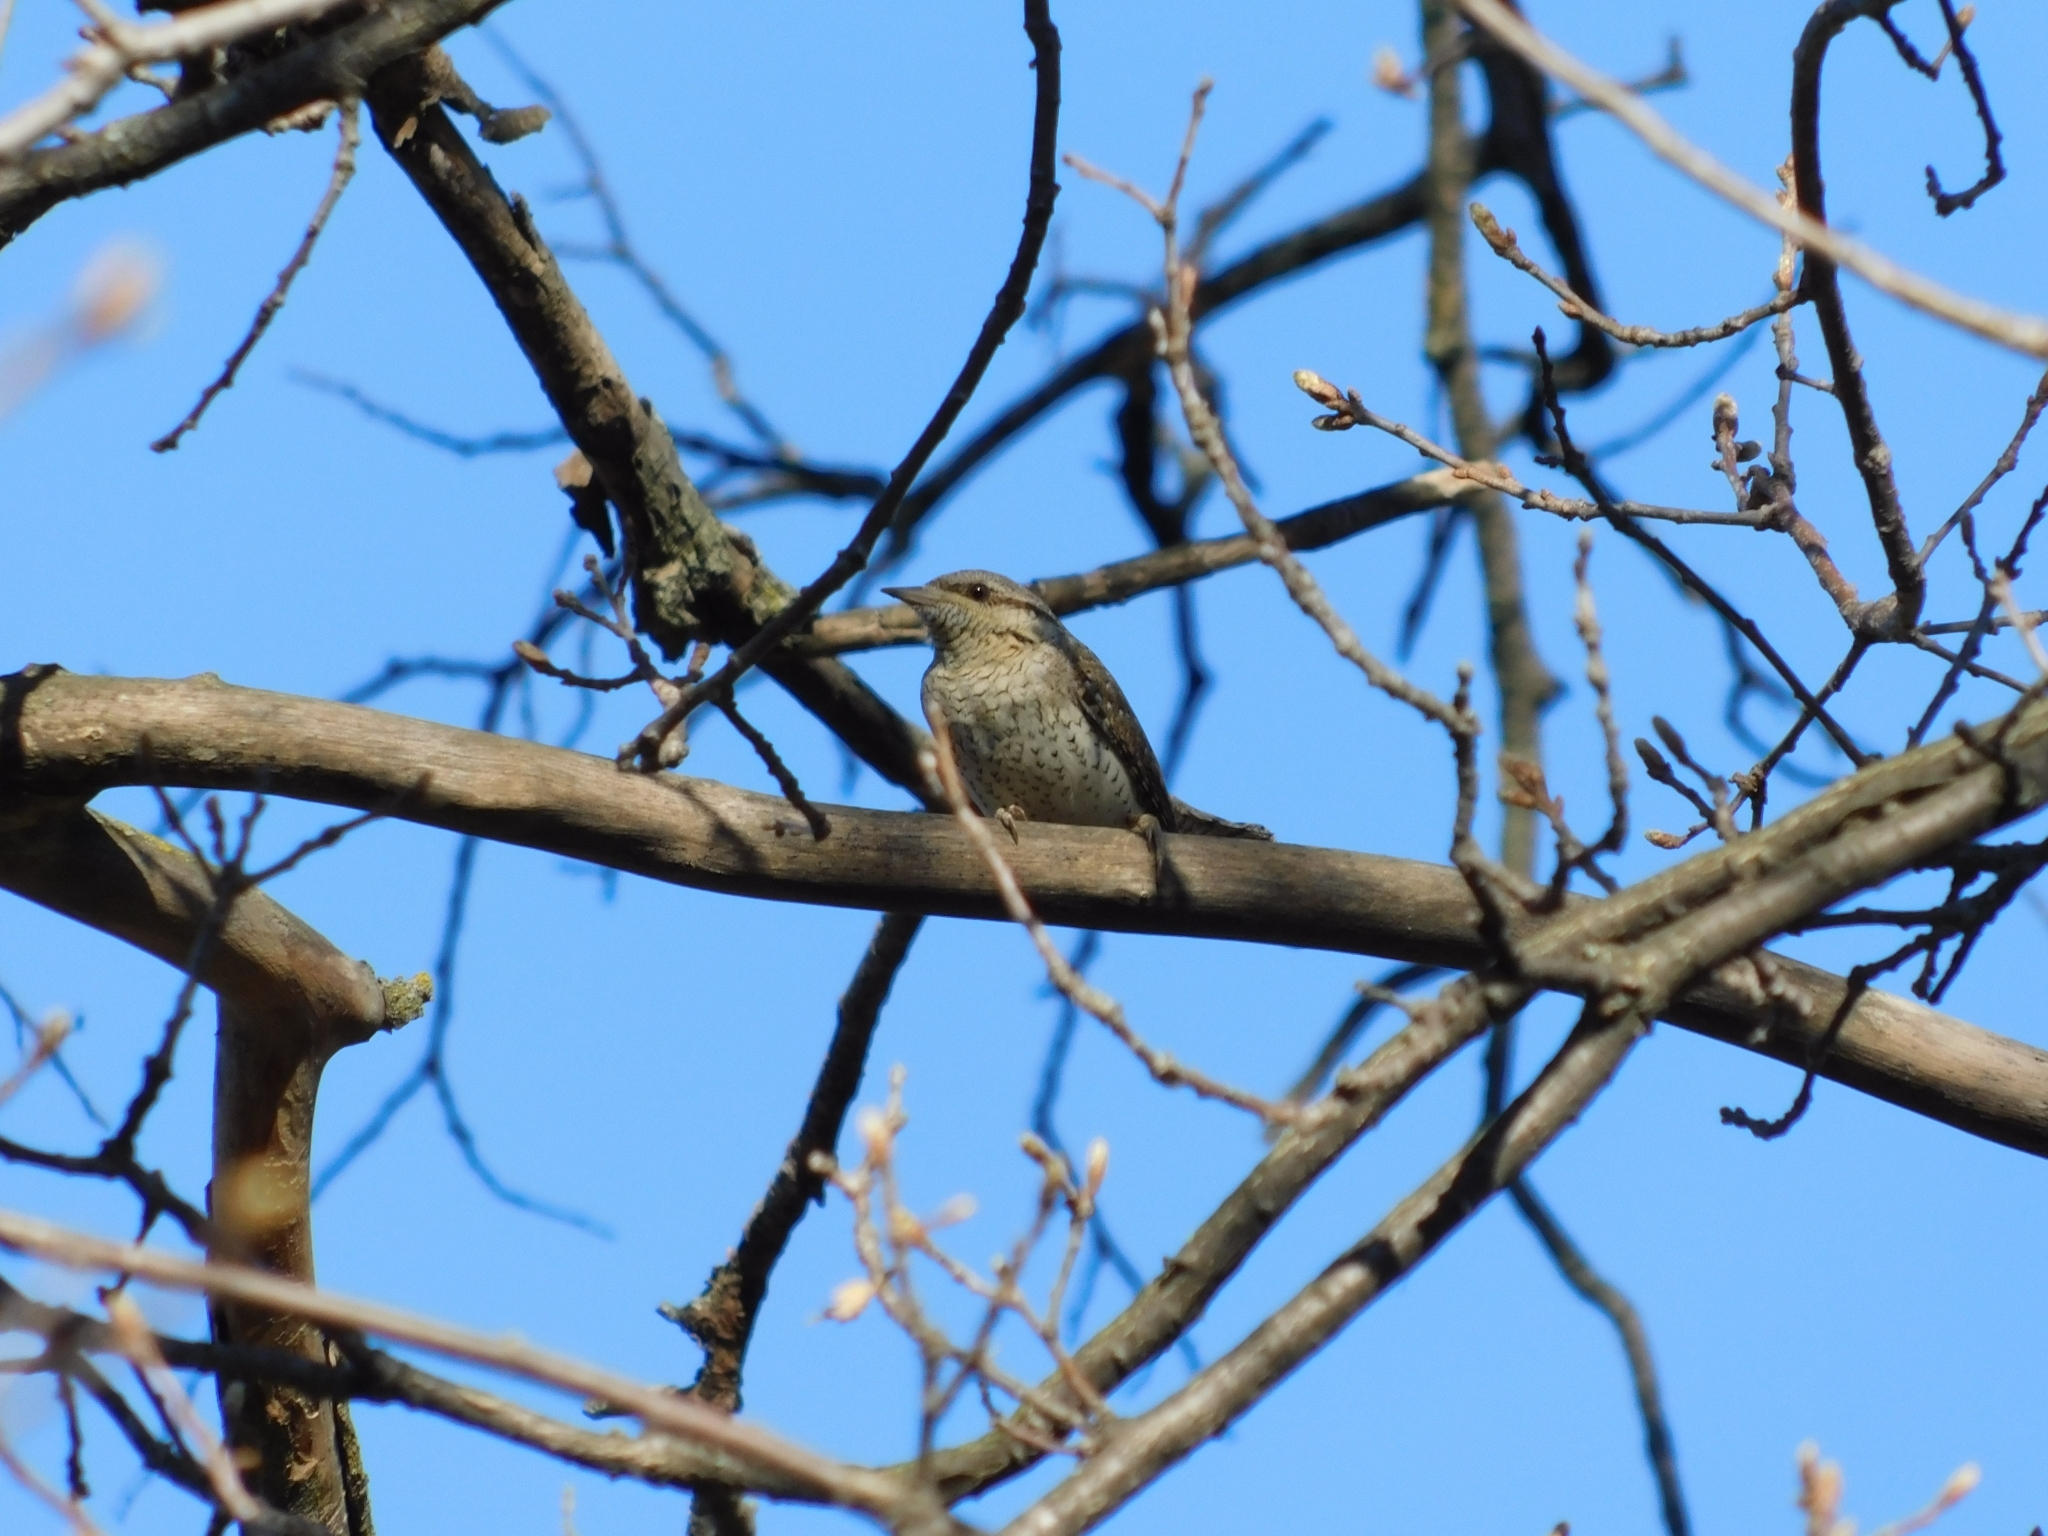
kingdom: Animalia
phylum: Chordata
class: Aves
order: Piciformes
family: Picidae
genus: Jynx
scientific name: Jynx torquilla
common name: Eurasian wryneck
